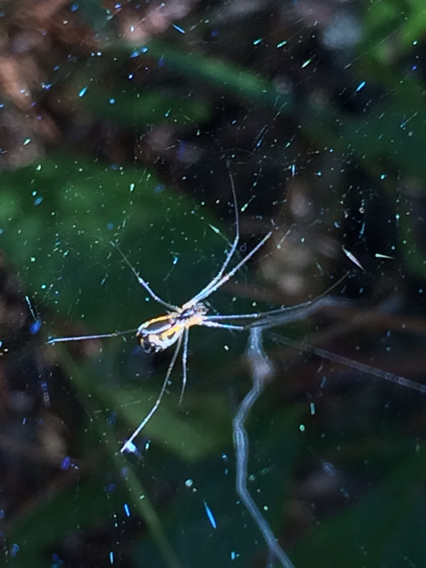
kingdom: Animalia
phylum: Arthropoda
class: Arachnida
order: Araneae
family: Linyphiidae
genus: Neriene
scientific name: Neriene radiata
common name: Filmy dome spider
